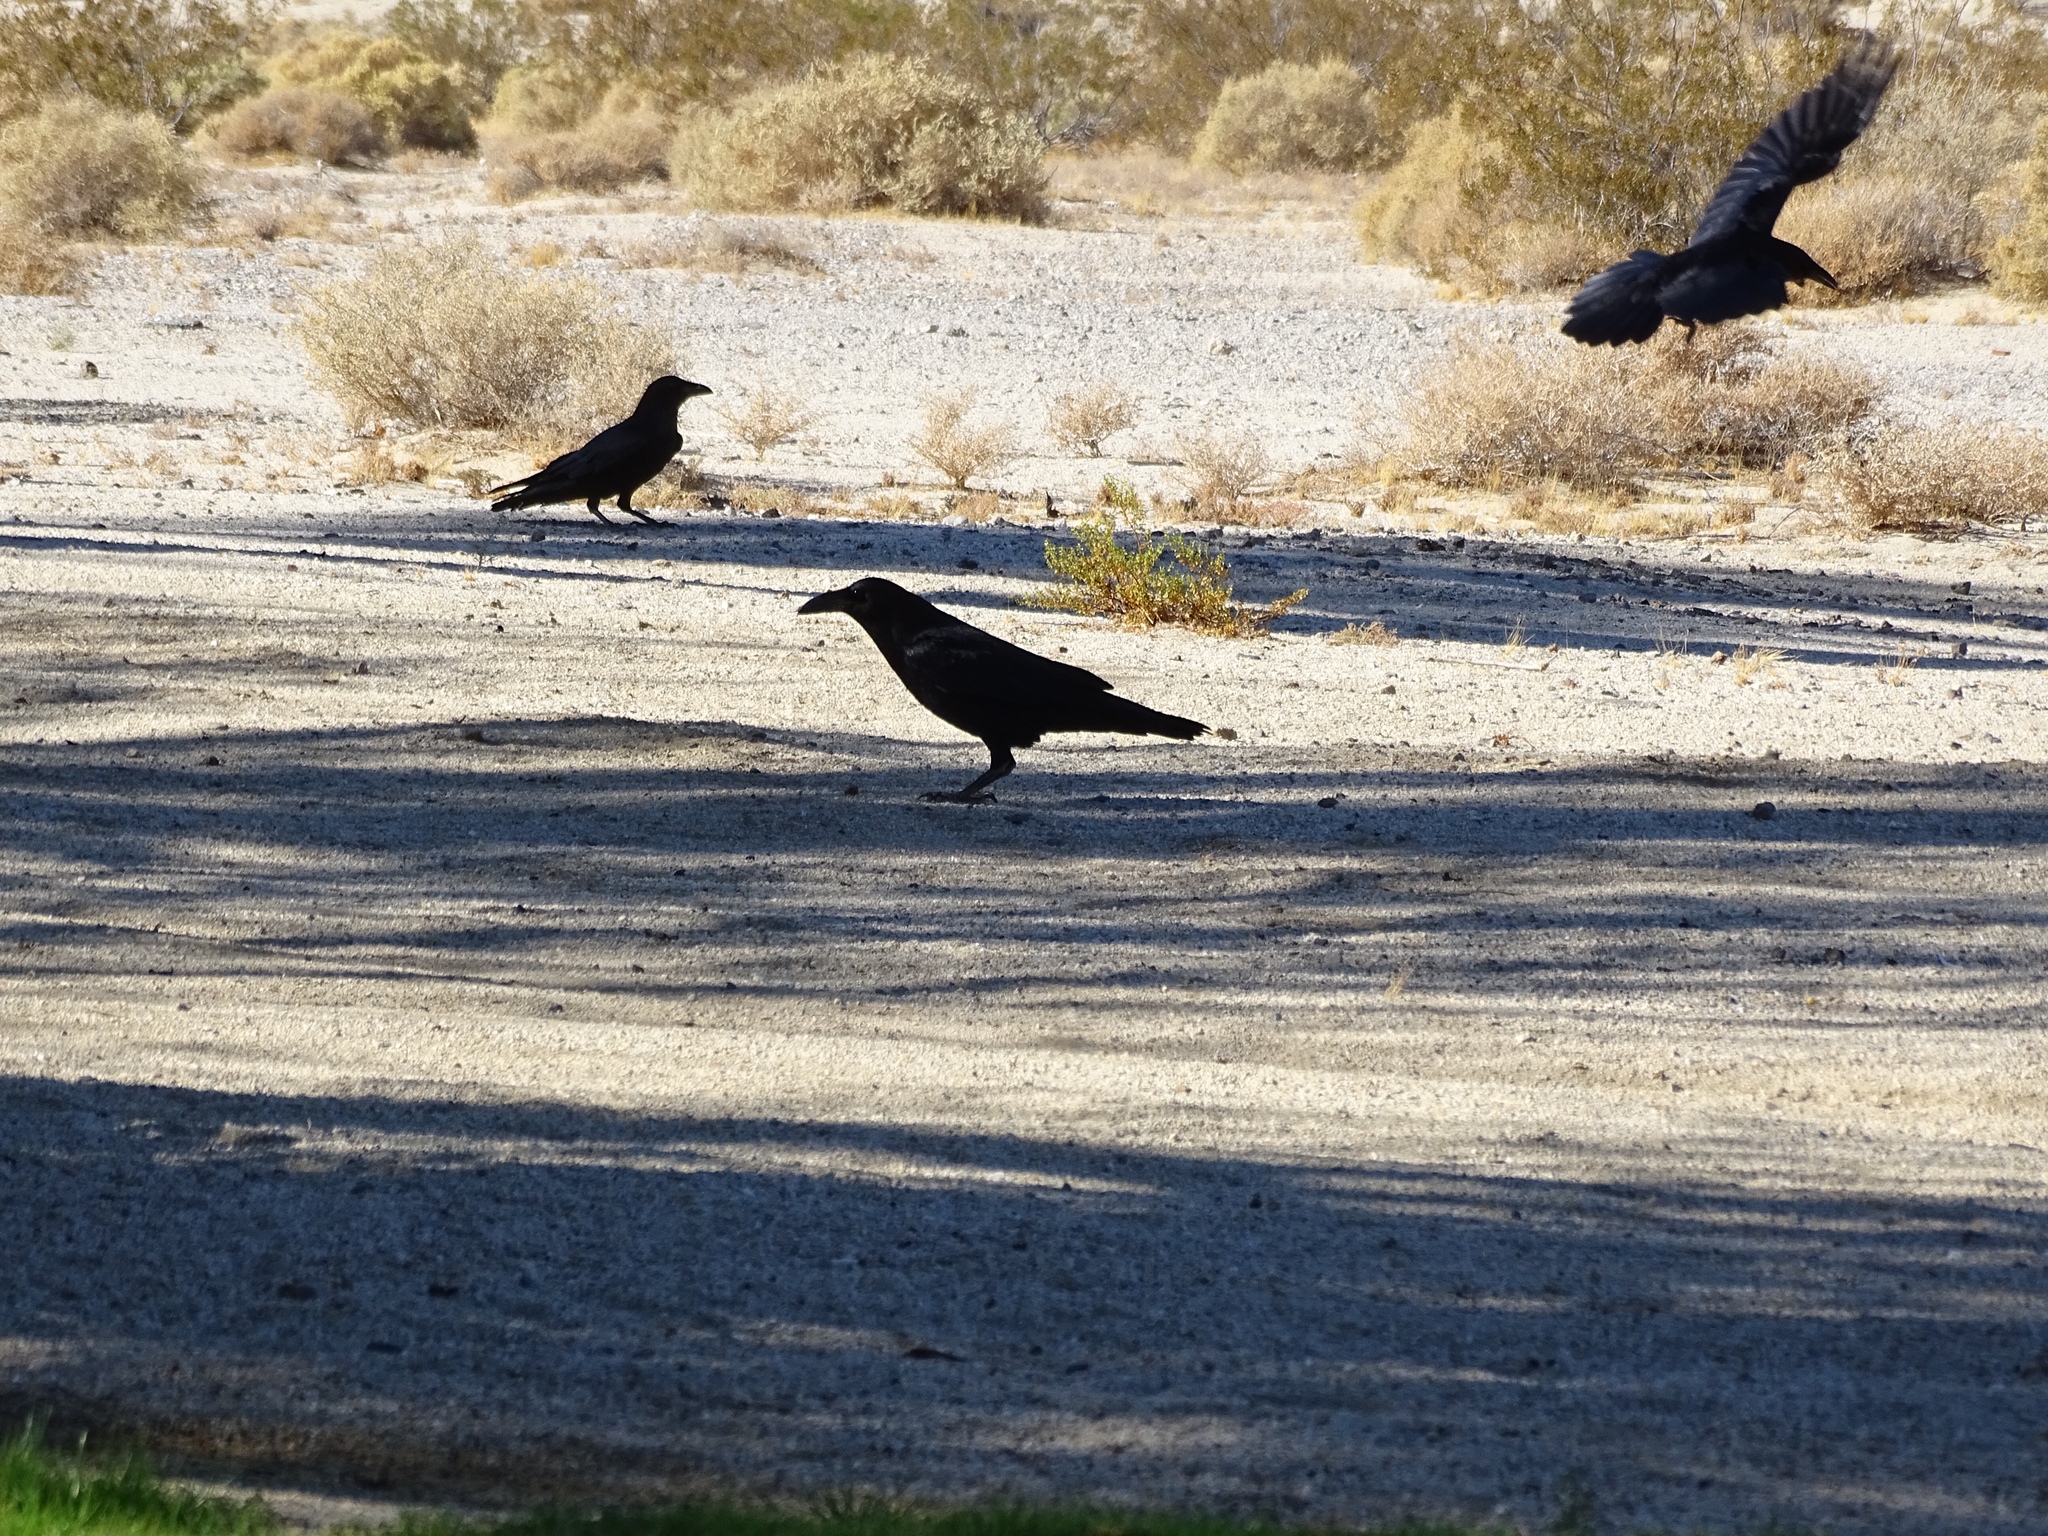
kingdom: Animalia
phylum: Chordata
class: Aves
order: Passeriformes
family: Corvidae
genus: Corvus
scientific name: Corvus corax
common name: Common raven
